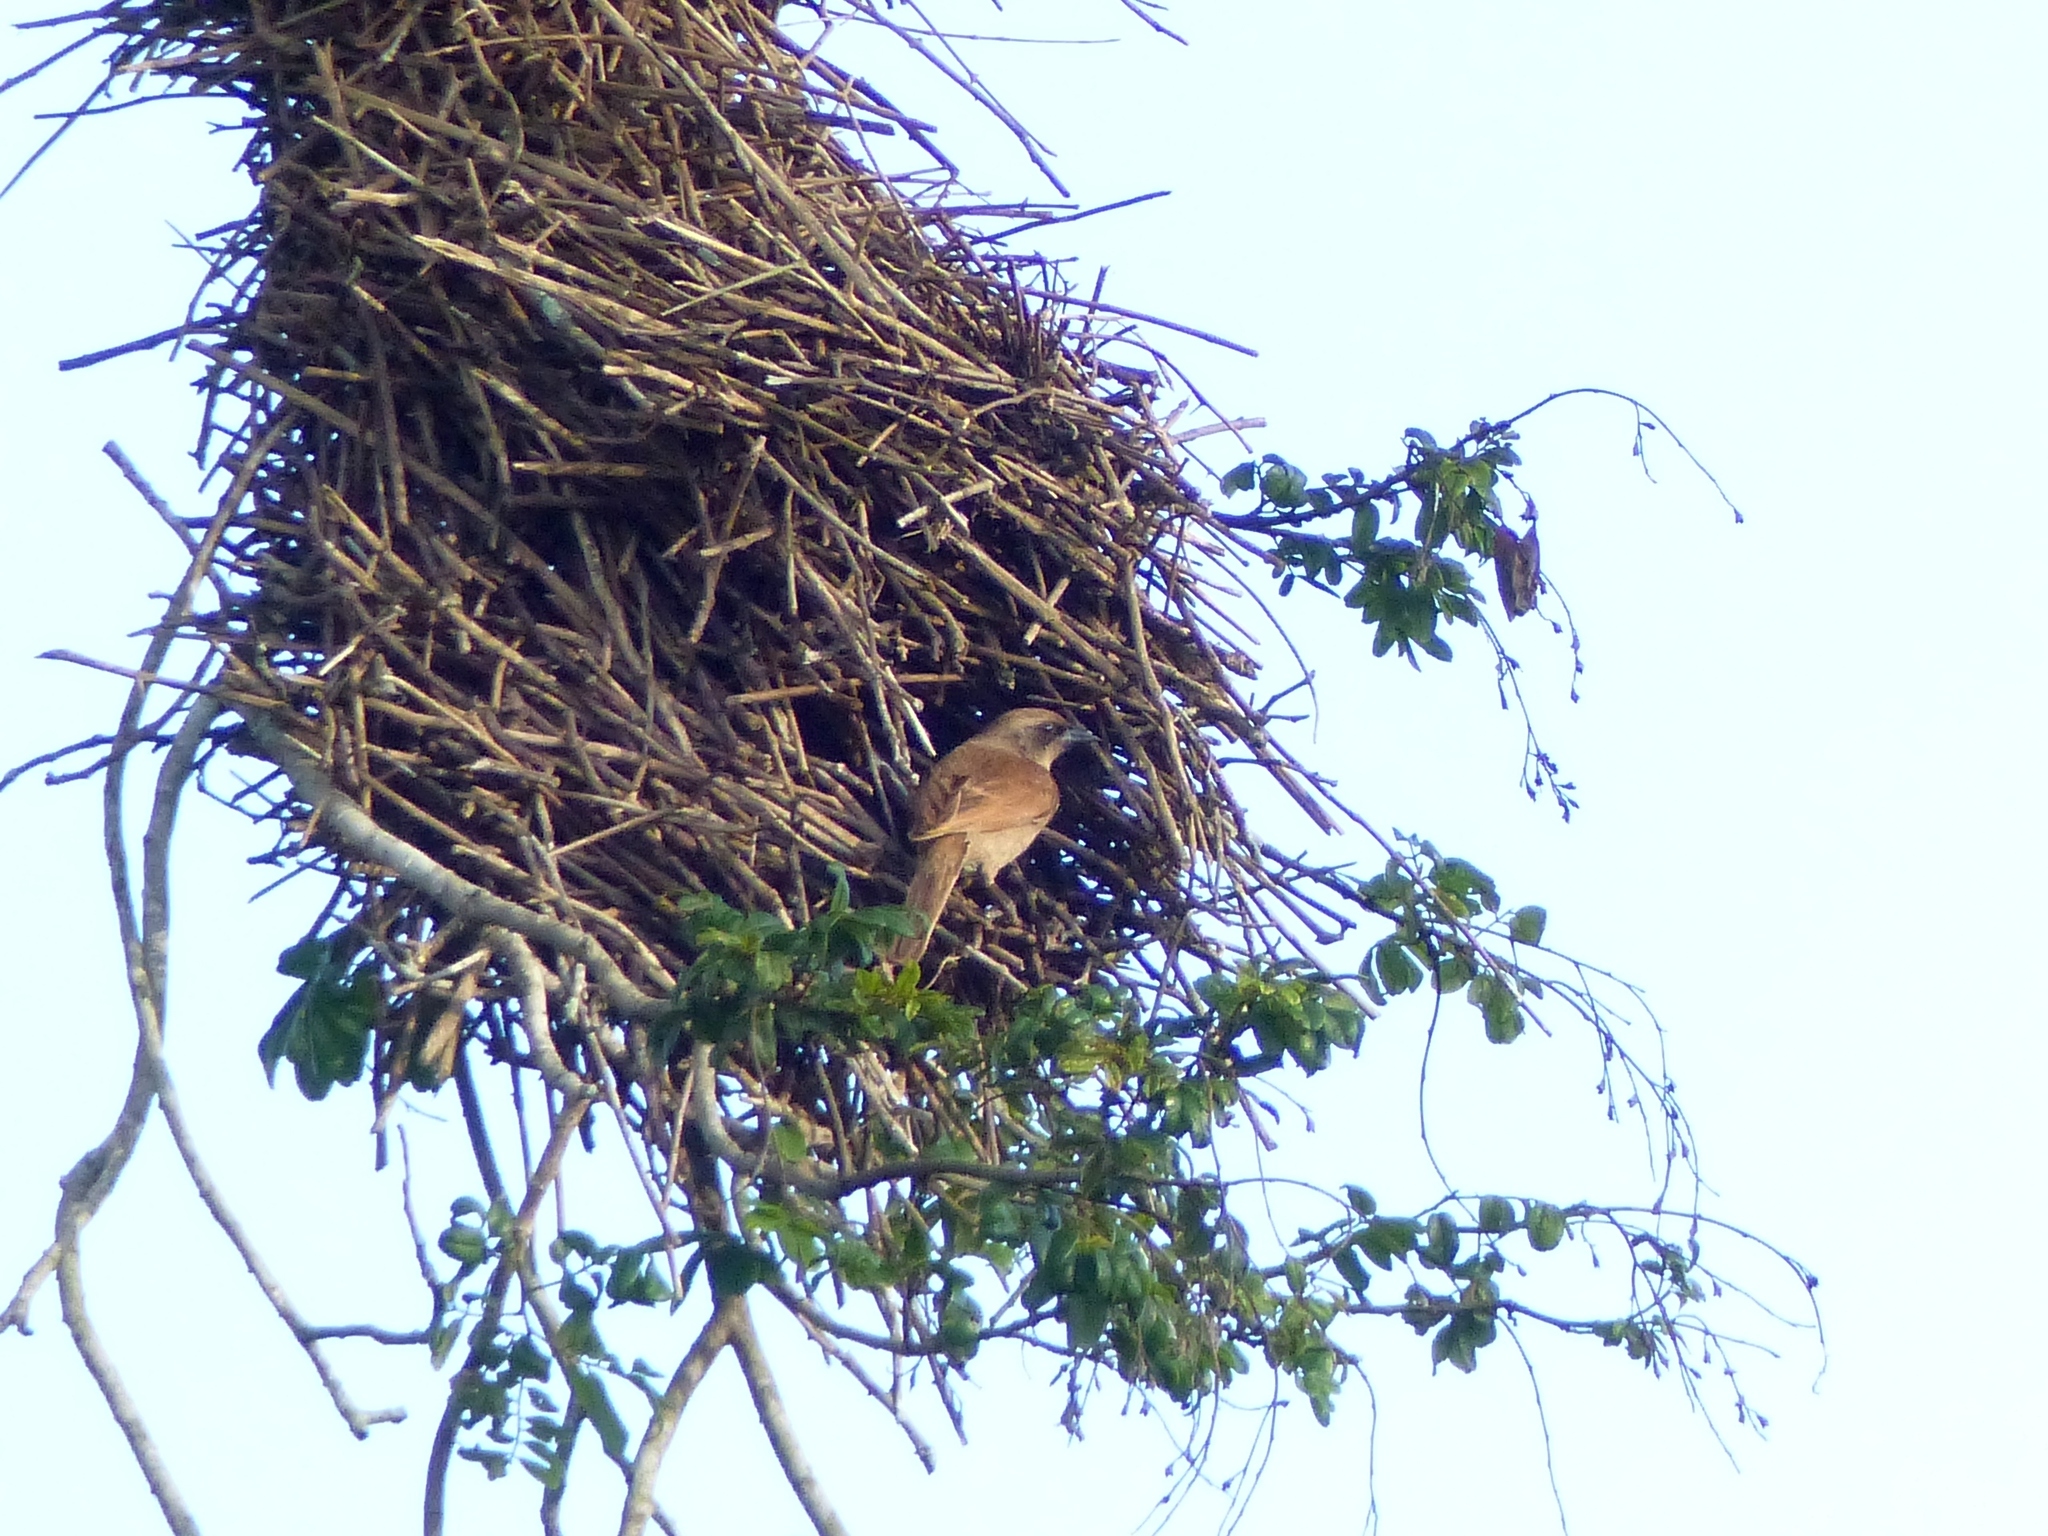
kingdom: Animalia
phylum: Chordata
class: Aves
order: Passeriformes
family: Icteridae
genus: Agelaioides
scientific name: Agelaioides badius
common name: Baywing
